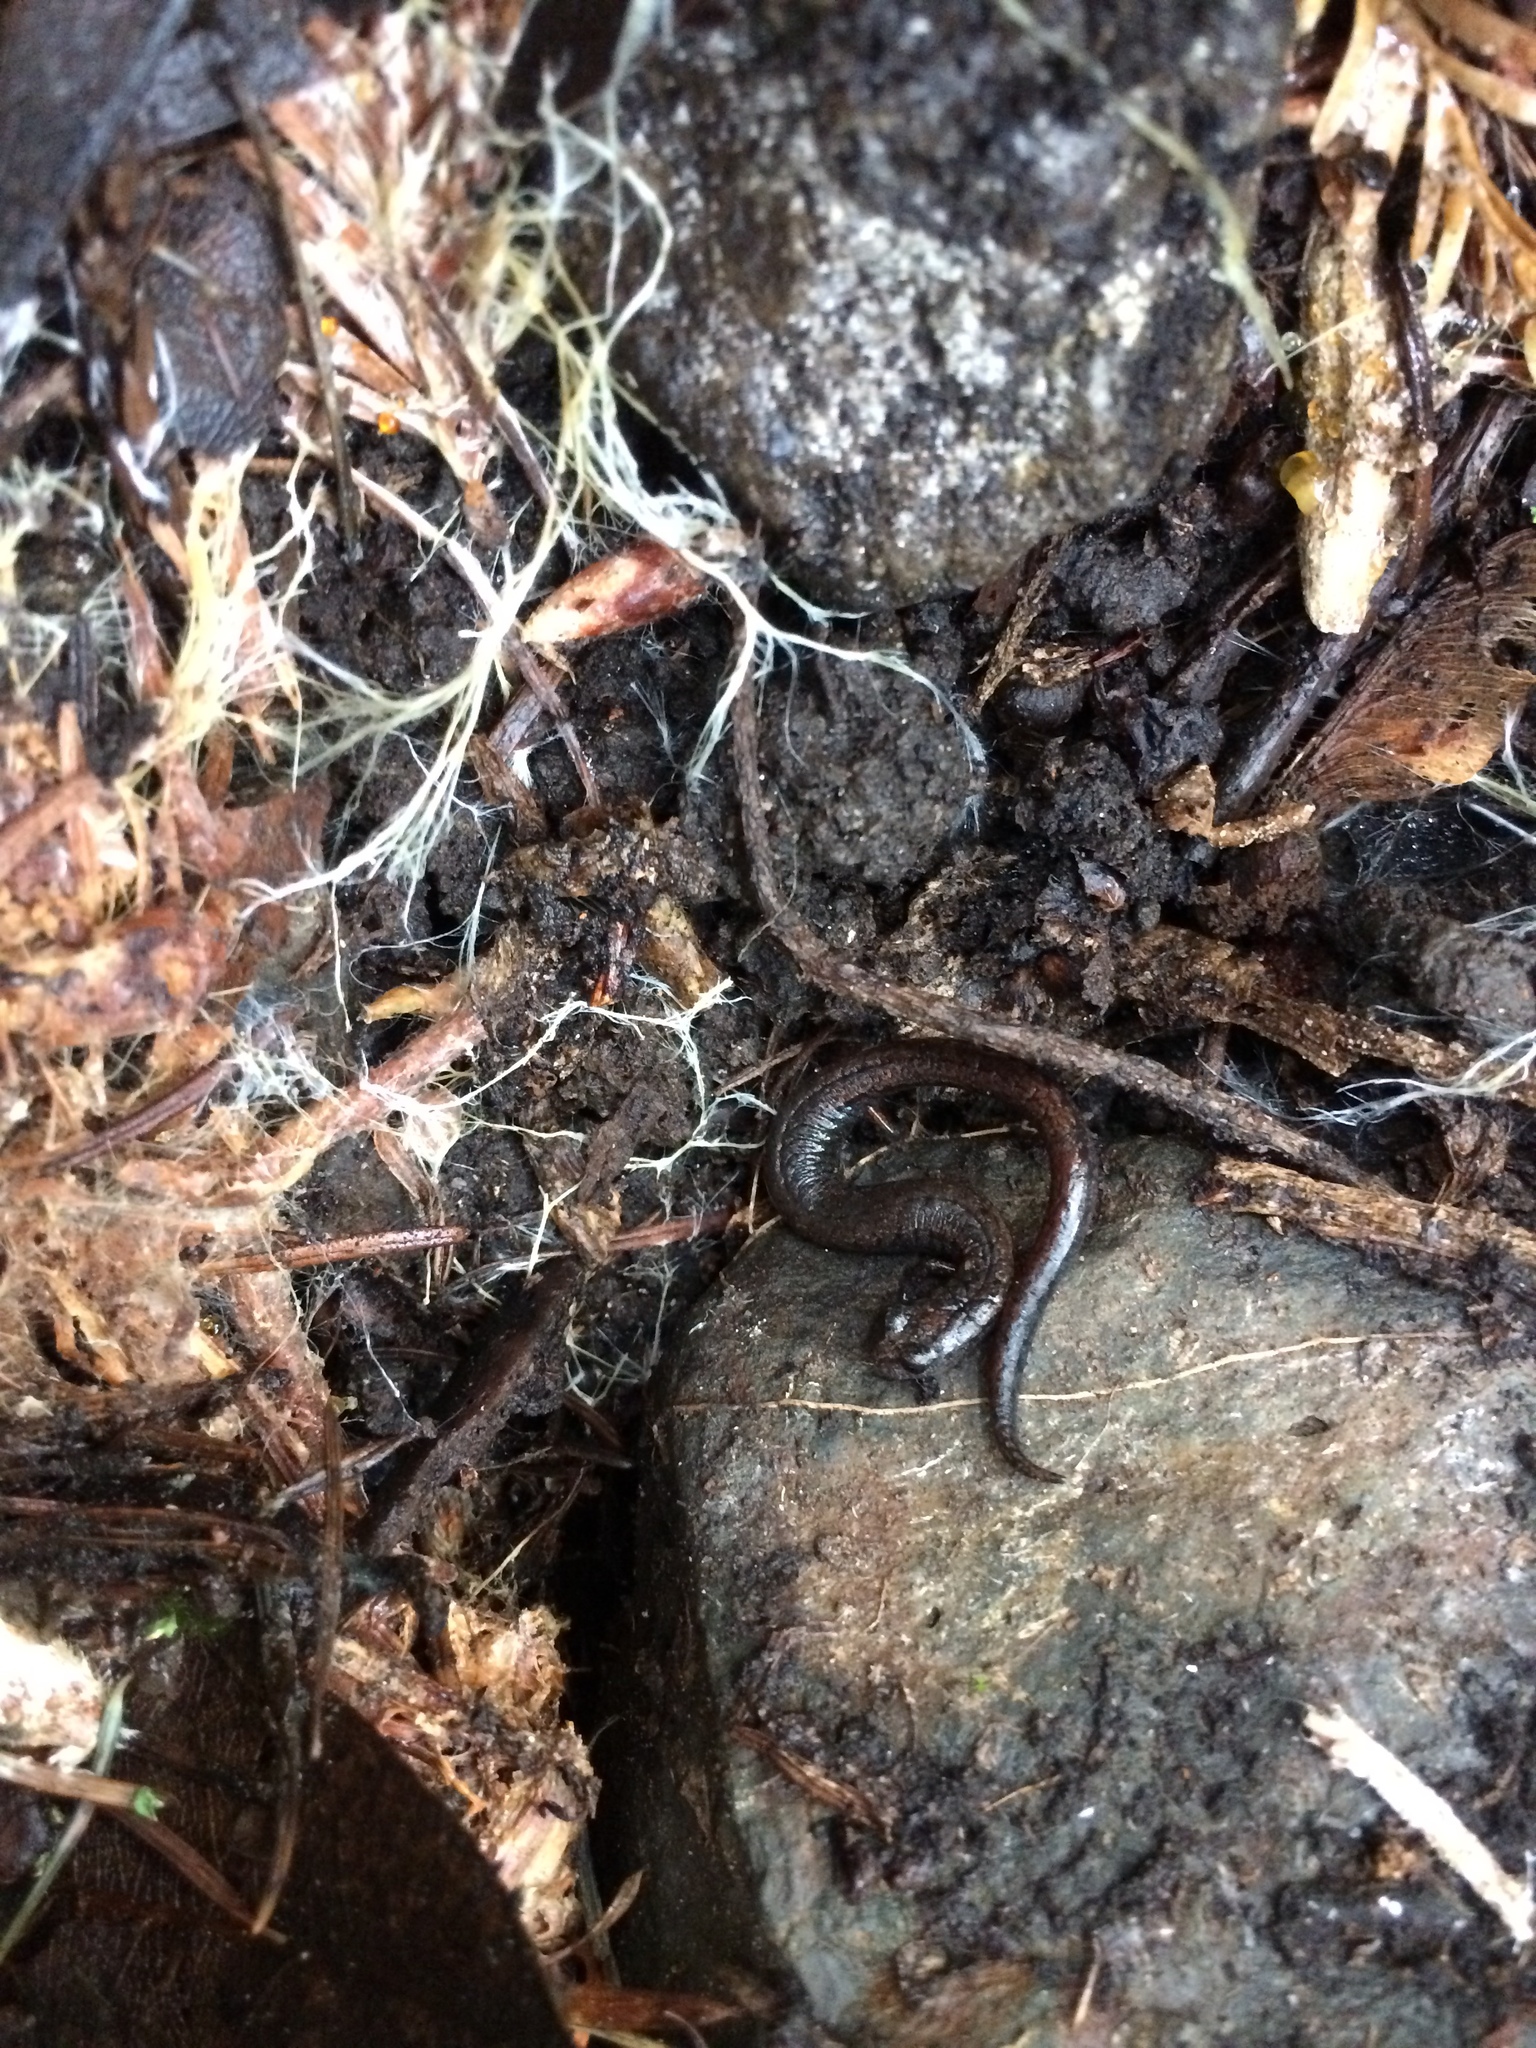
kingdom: Animalia
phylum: Chordata
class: Amphibia
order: Caudata
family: Plethodontidae
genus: Batrachoseps
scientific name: Batrachoseps attenuatus
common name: California slender salamander
